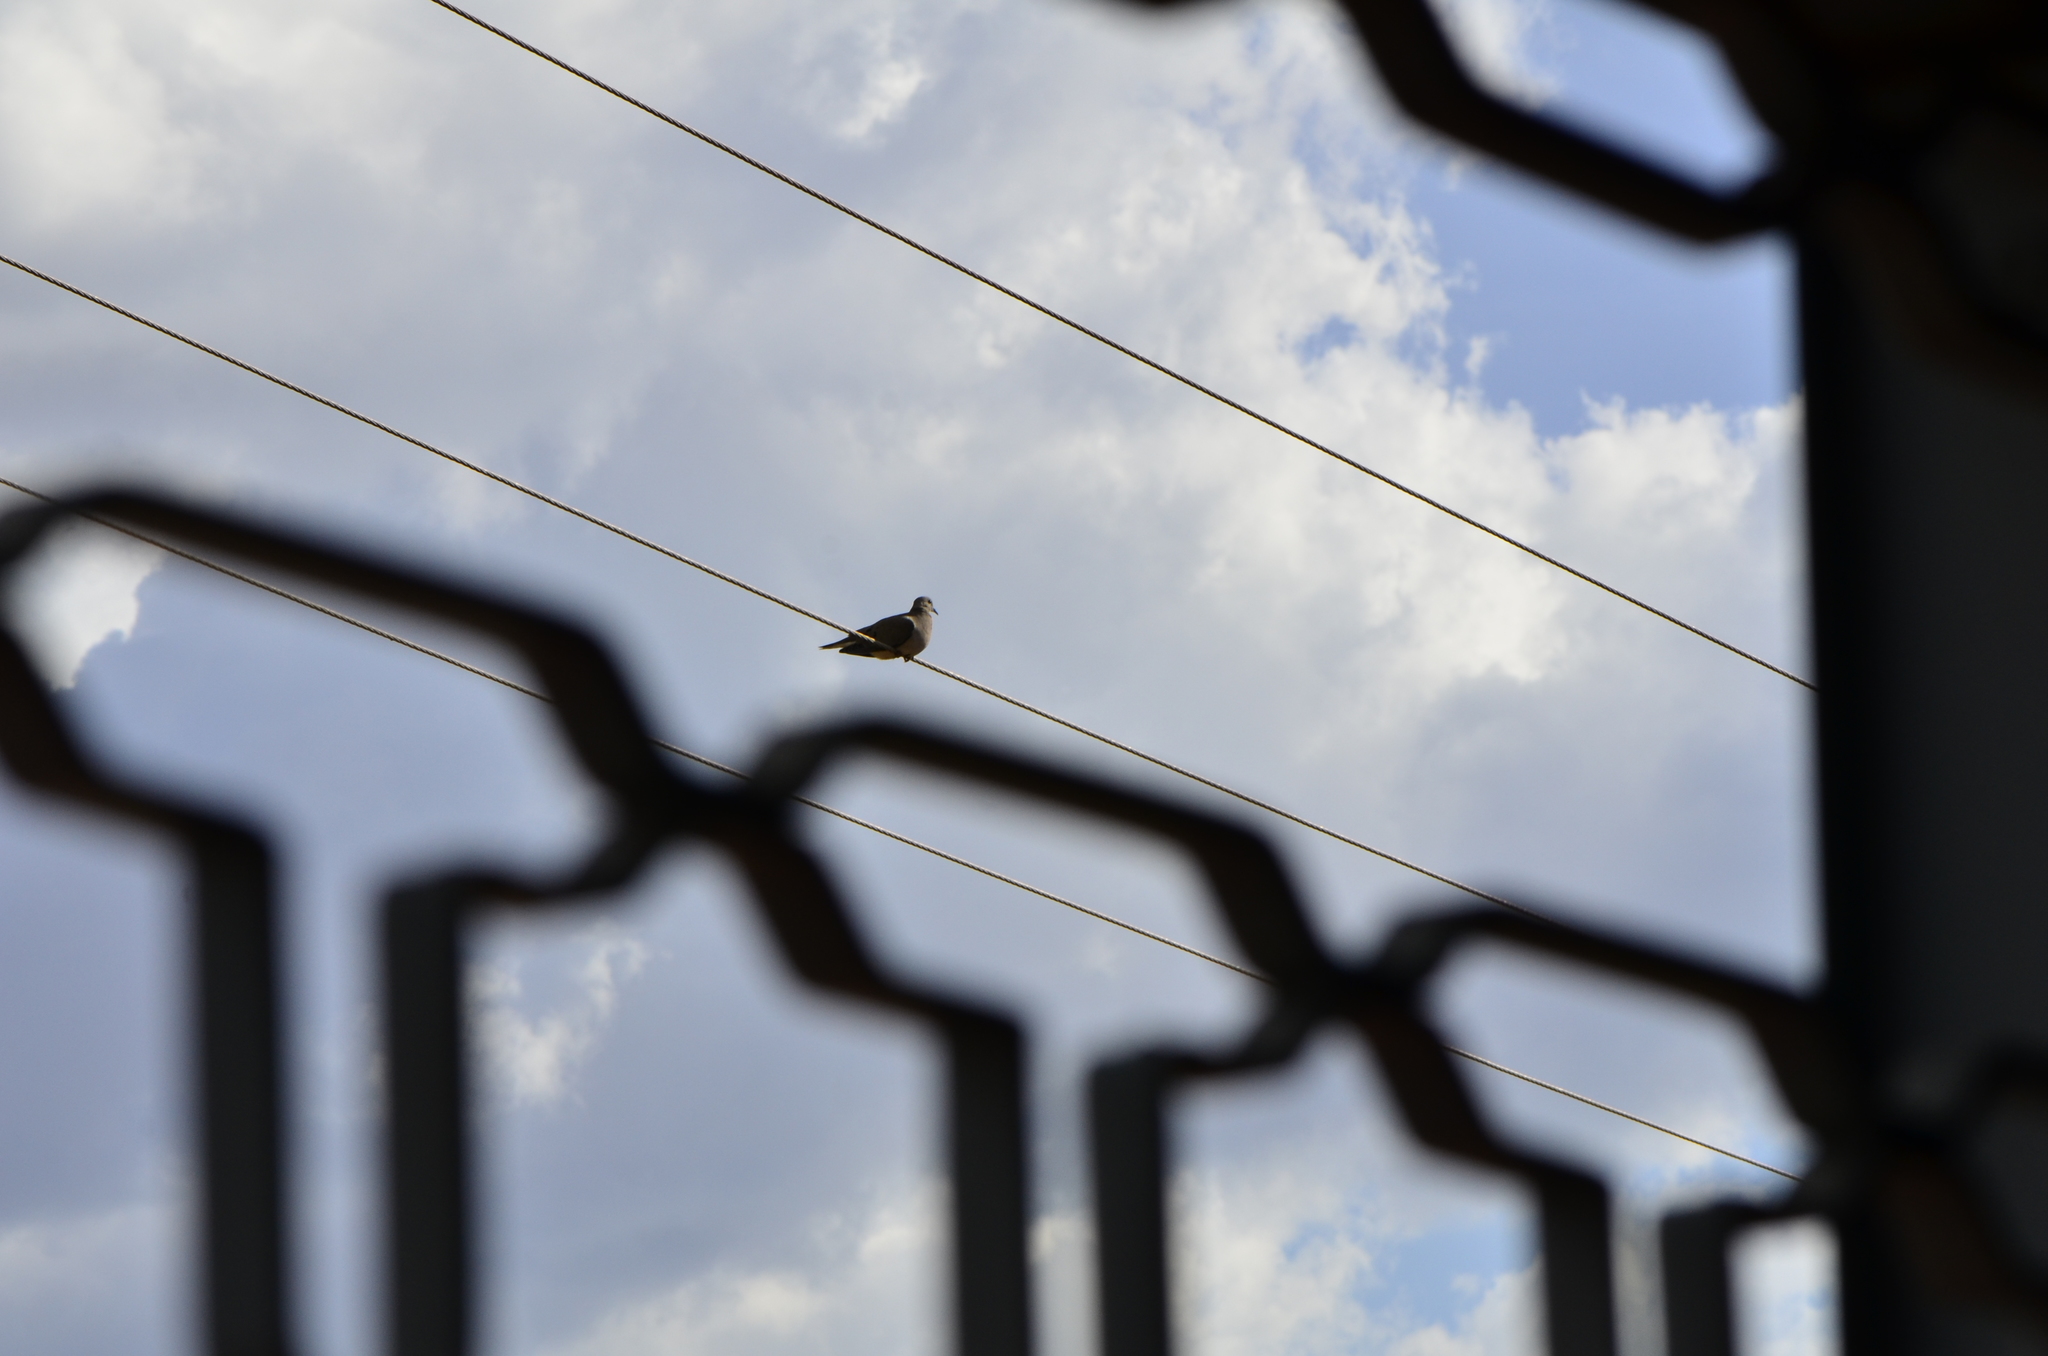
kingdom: Animalia
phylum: Chordata
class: Aves
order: Columbiformes
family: Columbidae
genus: Zenaida
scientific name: Zenaida auriculata
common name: Eared dove
